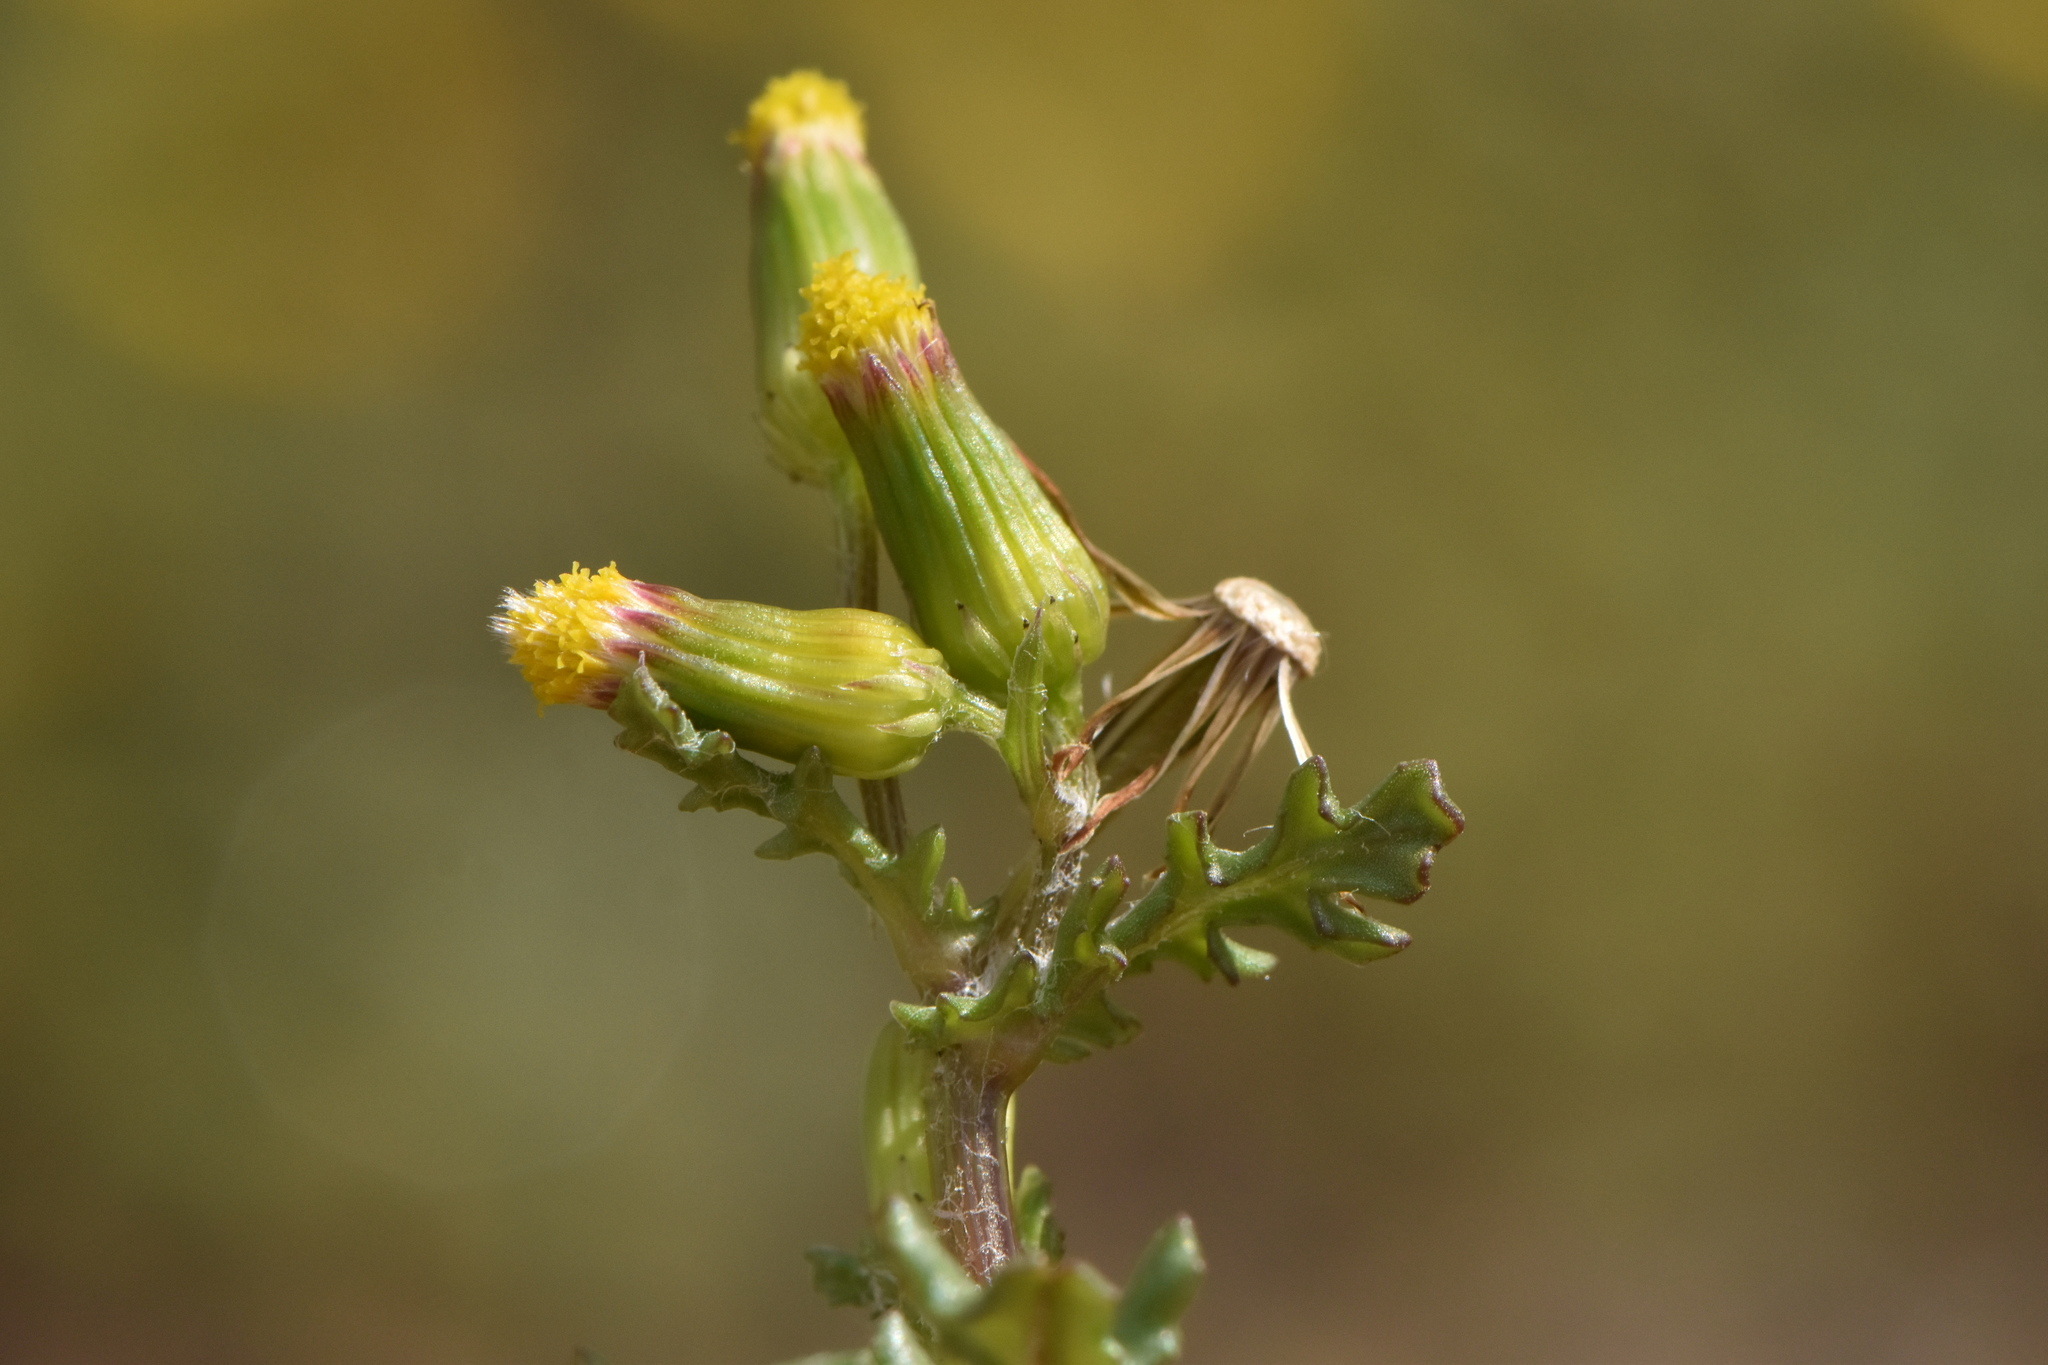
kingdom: Plantae
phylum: Tracheophyta
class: Magnoliopsida
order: Asterales
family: Asteraceae
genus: Senecio
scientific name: Senecio vulgaris
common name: Old-man-in-the-spring
